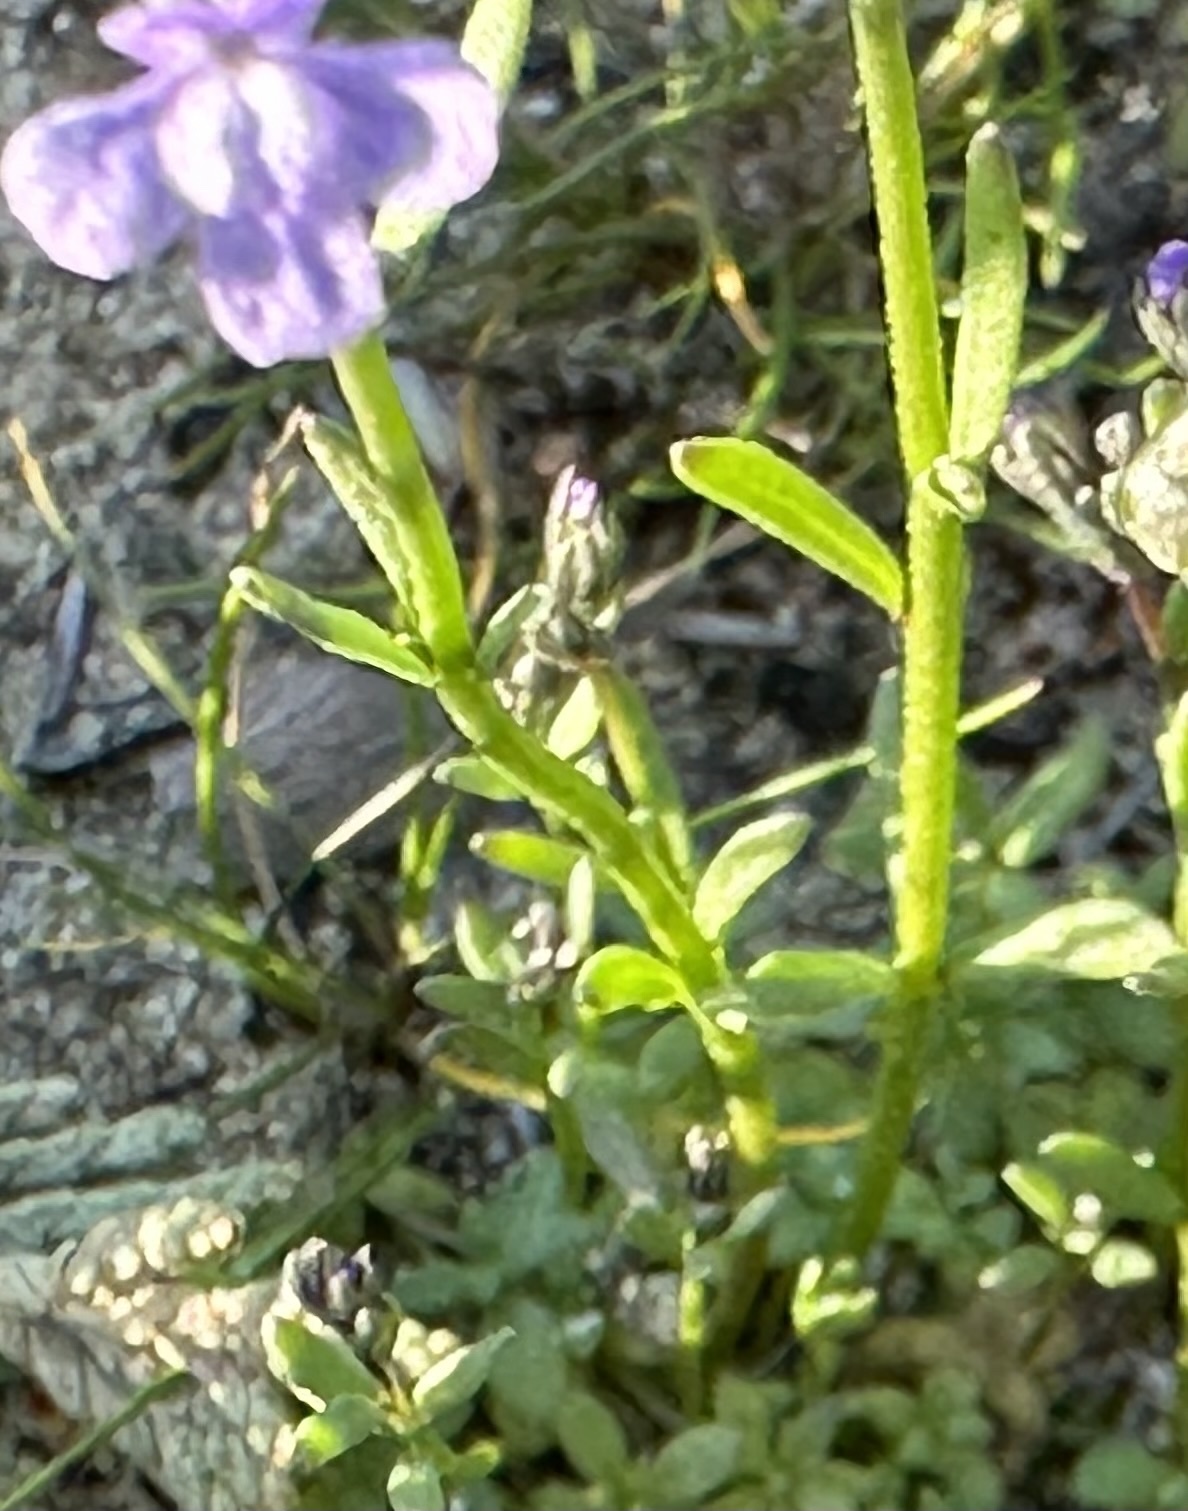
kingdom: Plantae
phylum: Tracheophyta
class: Magnoliopsida
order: Lamiales
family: Plantaginaceae
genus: Nuttallanthus
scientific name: Nuttallanthus texanus
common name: Texas toadflax
